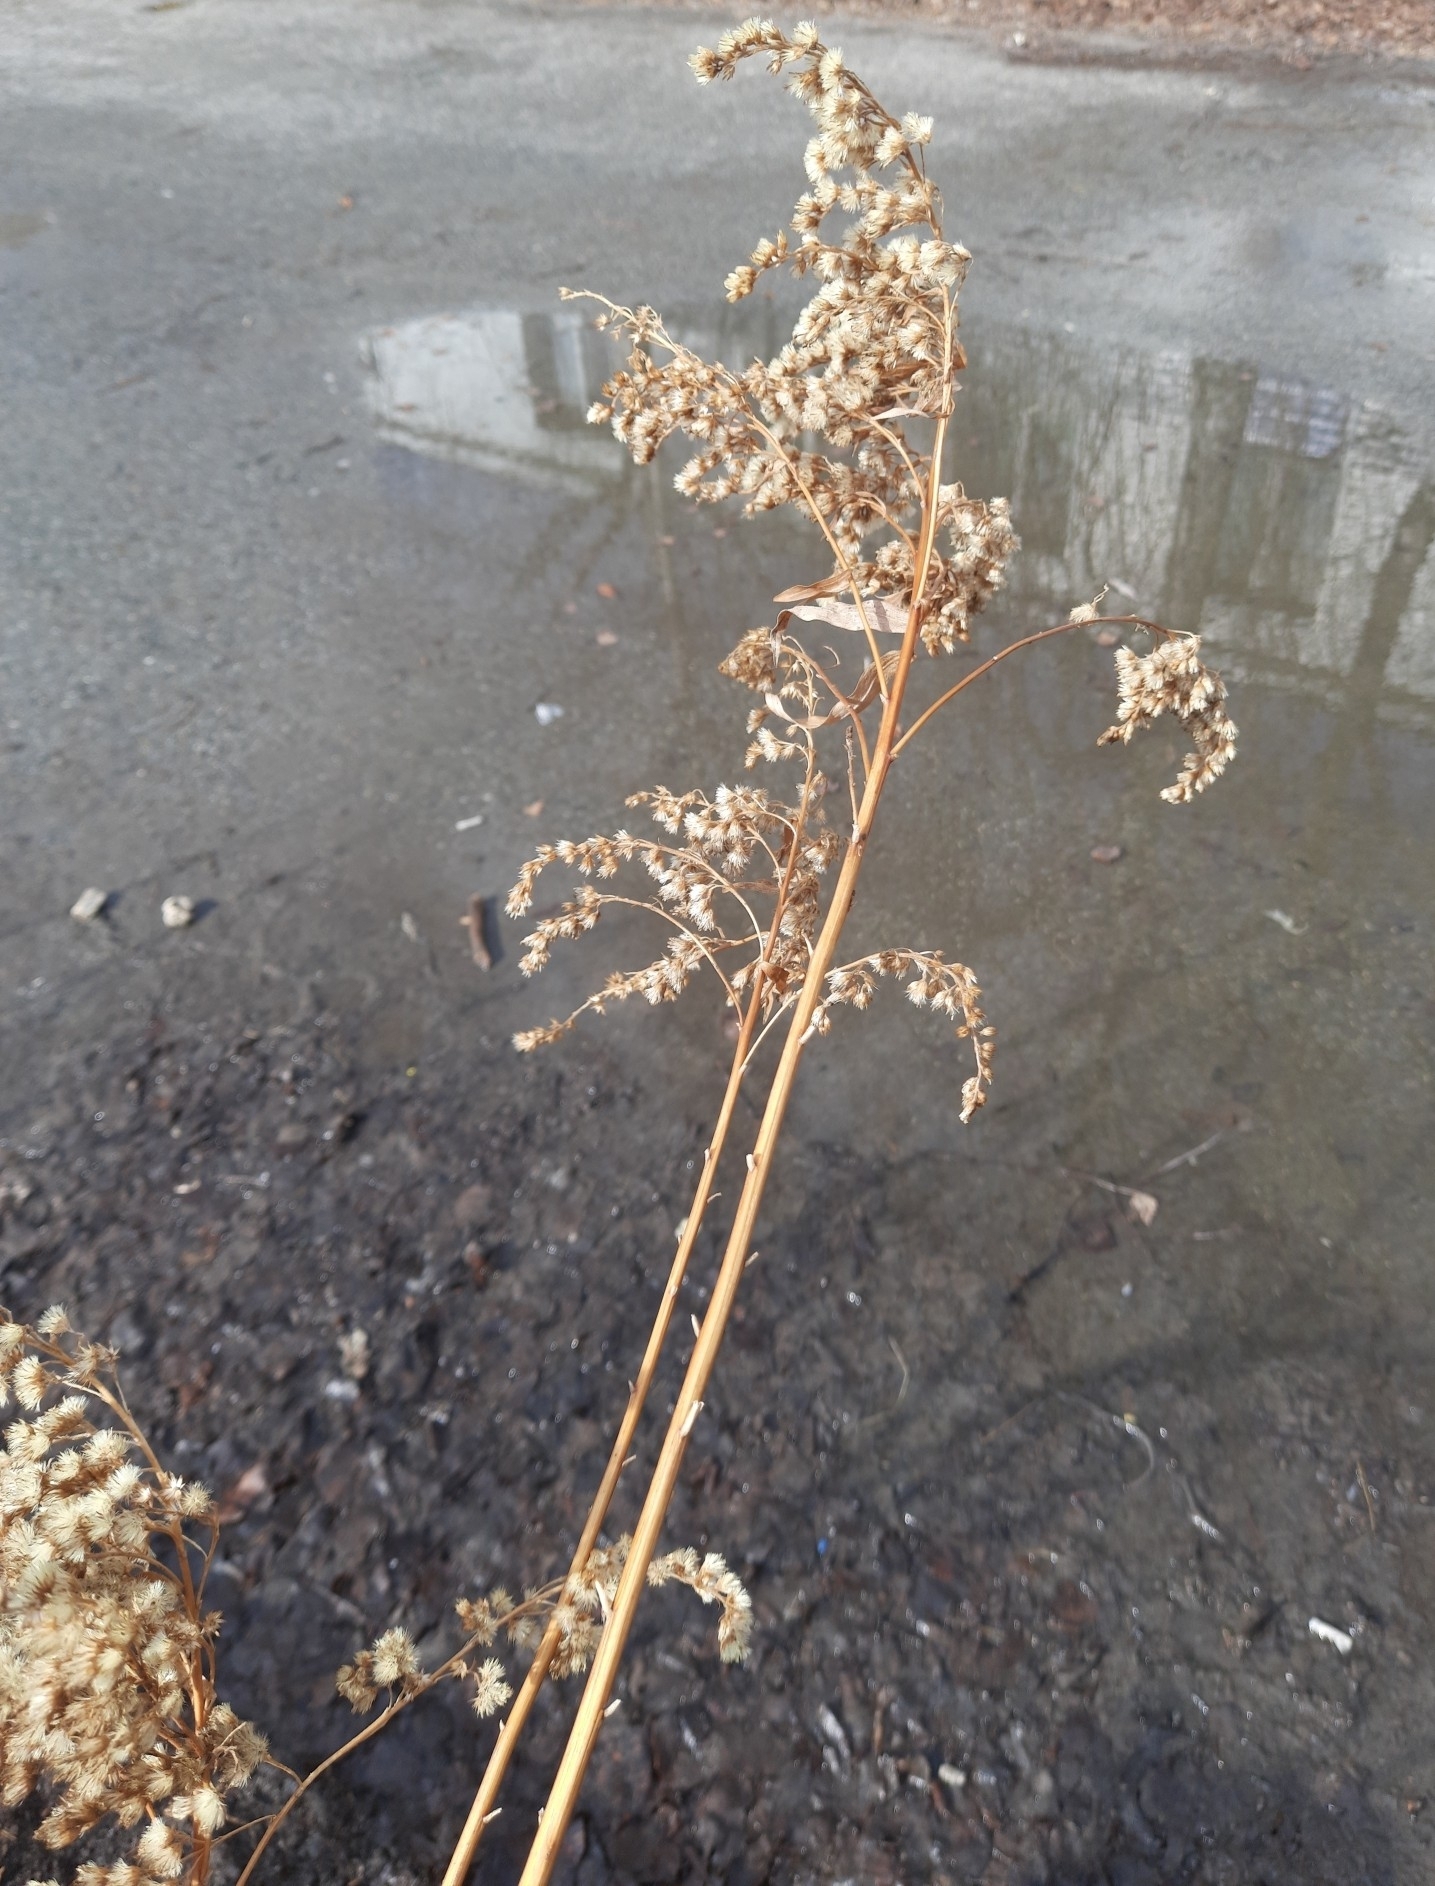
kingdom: Plantae
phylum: Tracheophyta
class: Magnoliopsida
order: Asterales
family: Asteraceae
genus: Solidago
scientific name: Solidago gigantea
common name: Giant goldenrod
